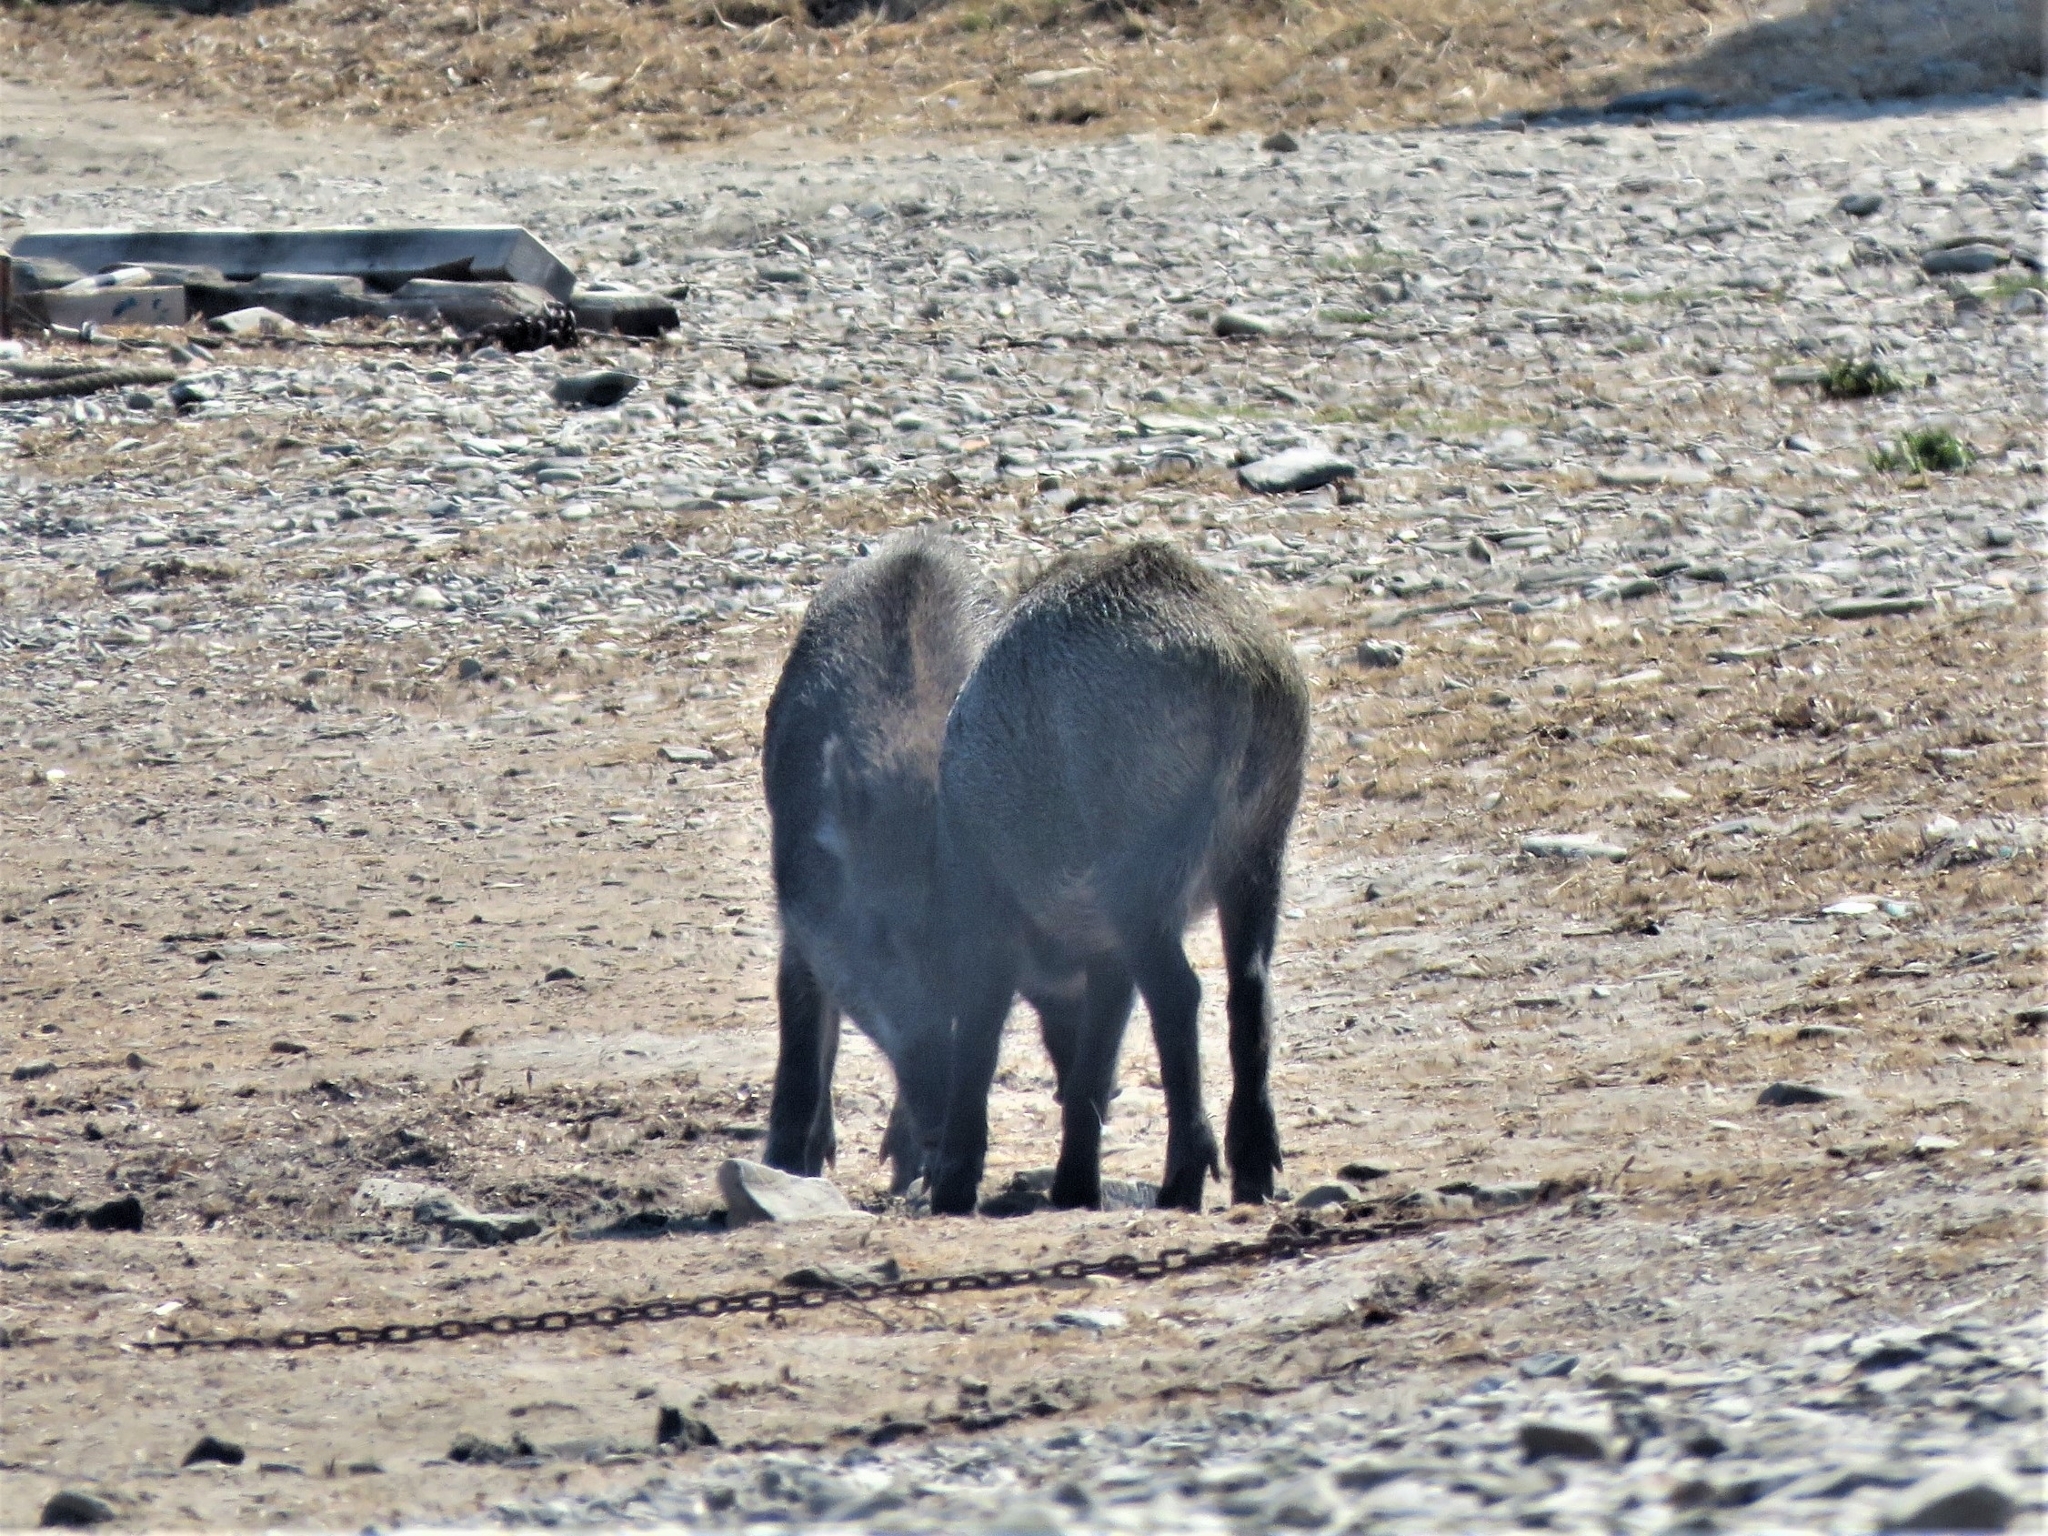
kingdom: Animalia
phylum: Chordata
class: Mammalia
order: Artiodactyla
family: Suidae
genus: Sus
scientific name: Sus scrofa
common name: Wild boar
